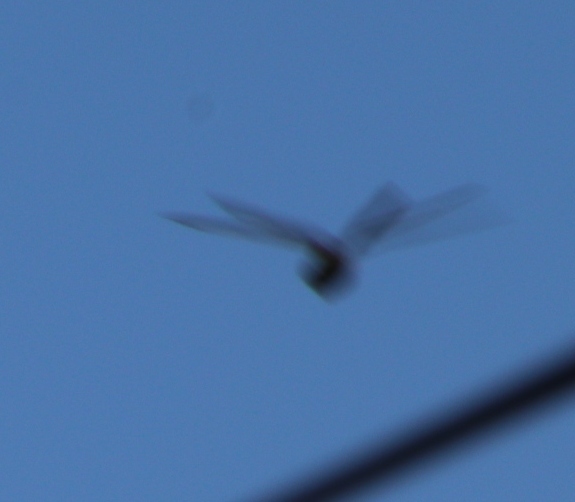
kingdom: Animalia
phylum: Arthropoda
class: Insecta
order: Odonata
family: Aeshnidae
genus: Anax
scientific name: Anax imperator
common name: Emperor dragonfly
